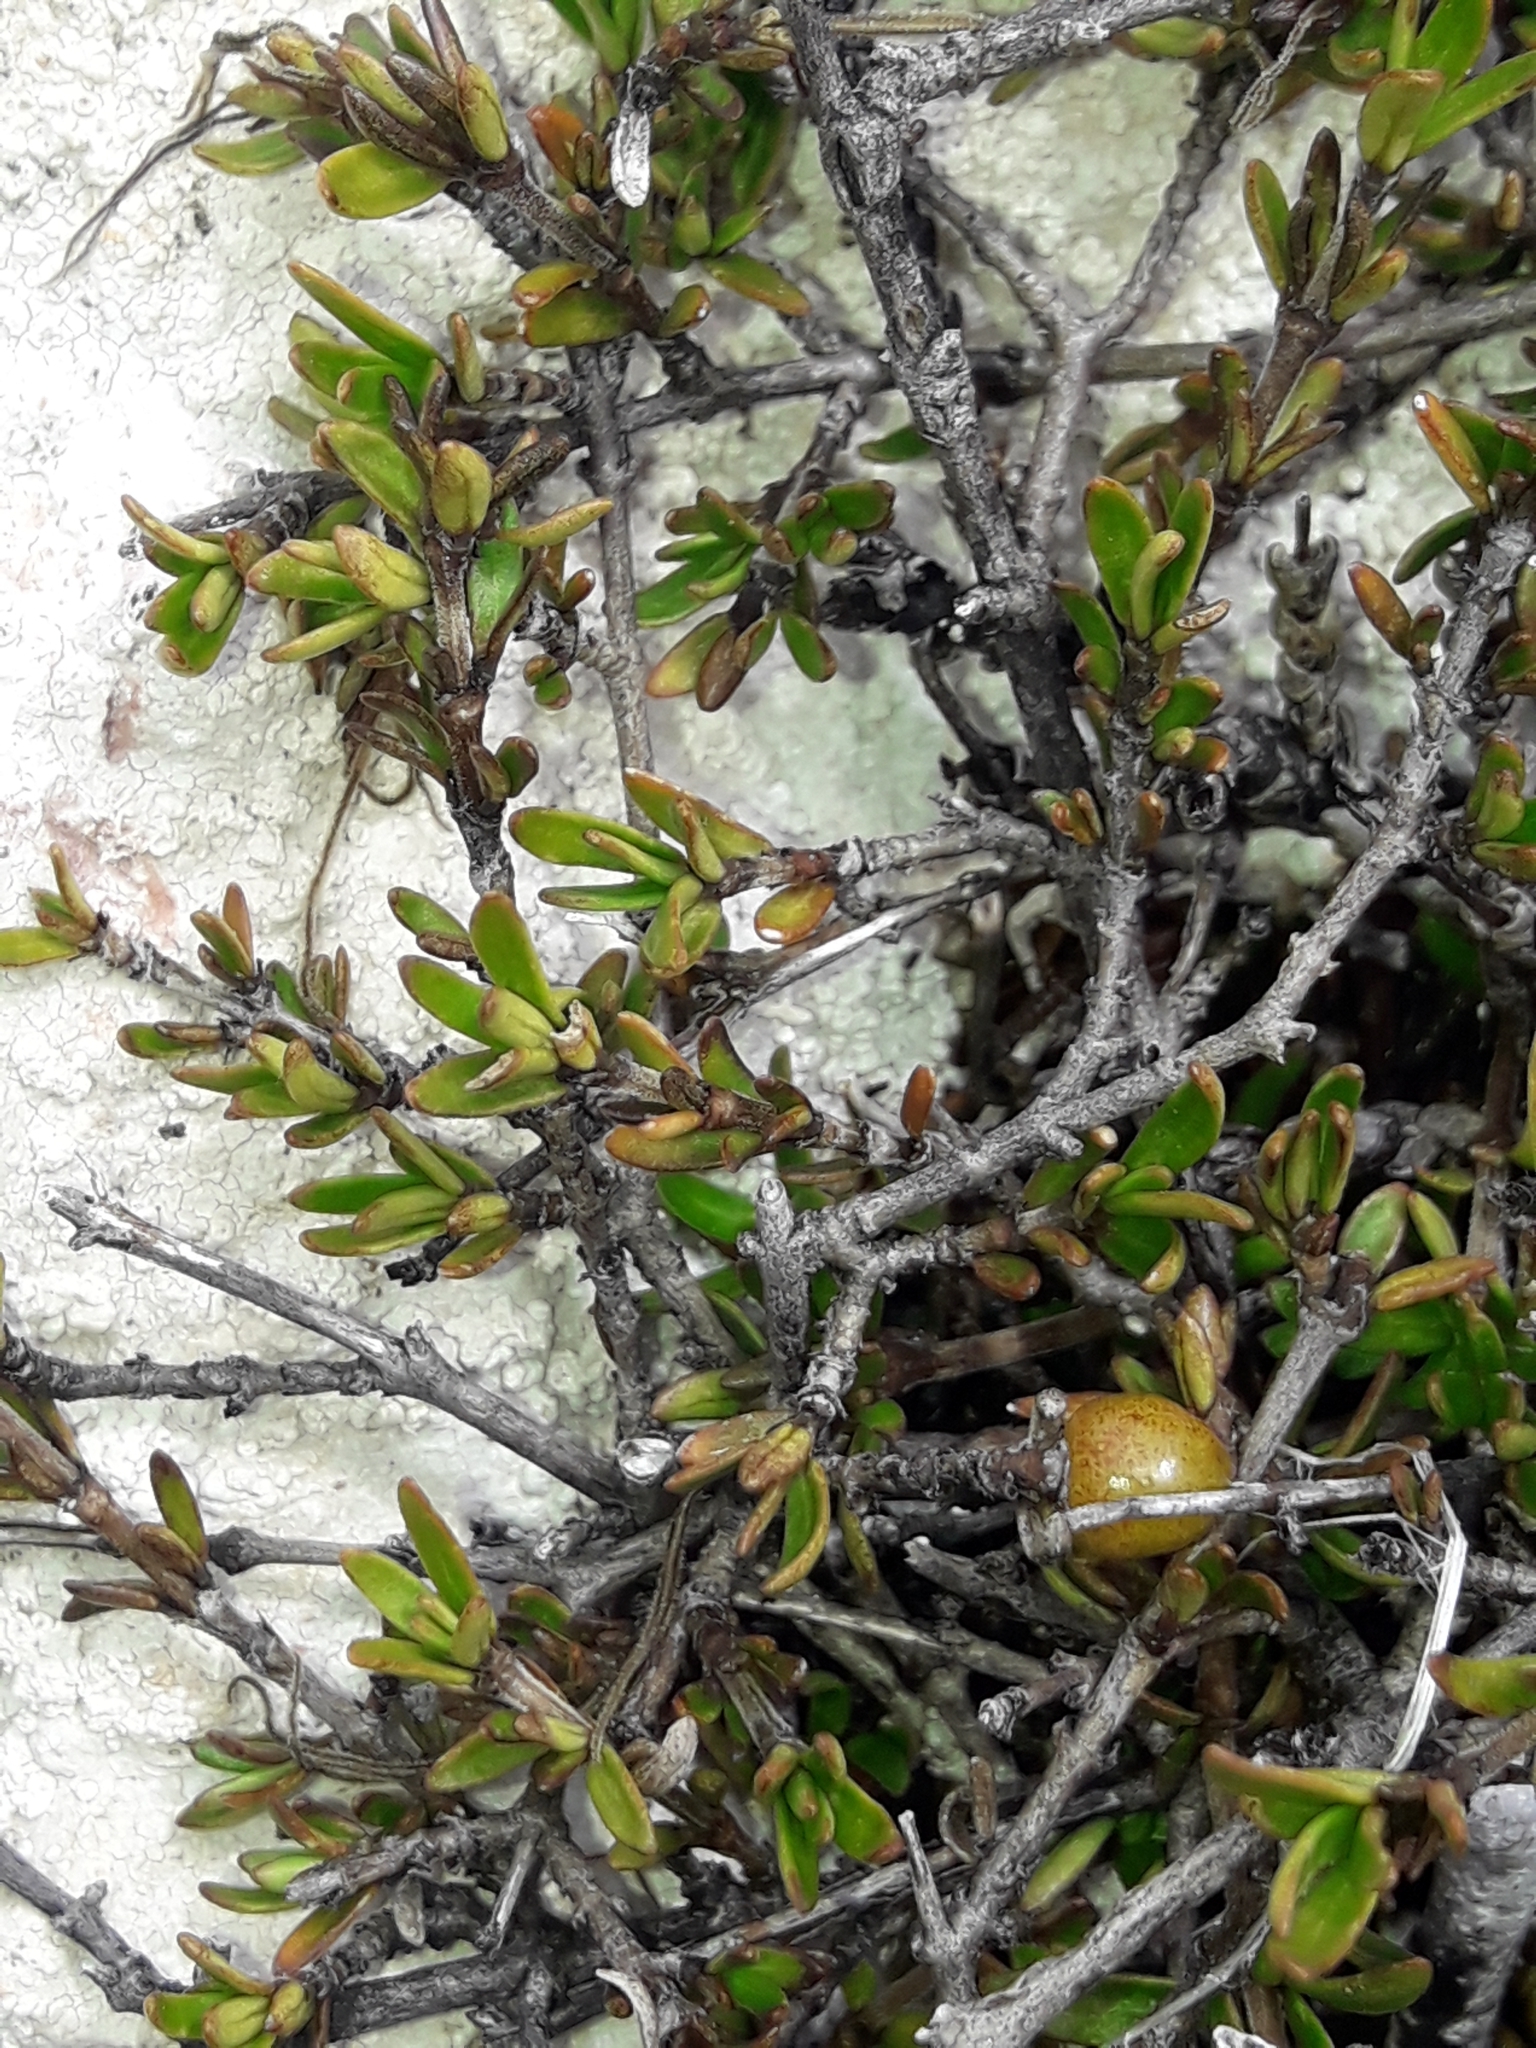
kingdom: Plantae
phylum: Tracheophyta
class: Magnoliopsida
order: Gentianales
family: Rubiaceae
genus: Coprosma
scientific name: Coprosma cheesemanii
